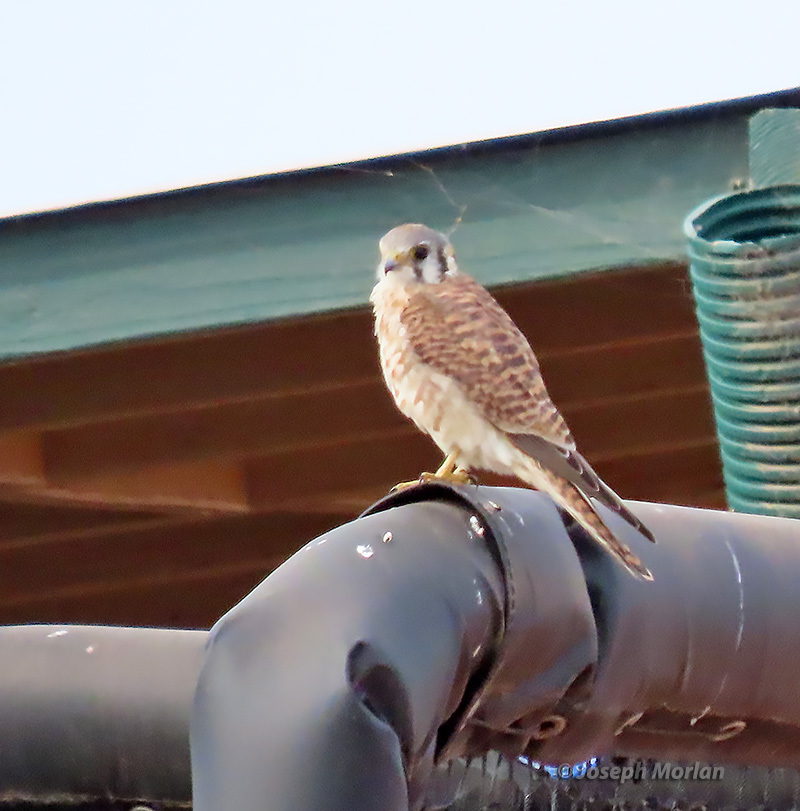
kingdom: Animalia
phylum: Chordata
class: Aves
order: Falconiformes
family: Falconidae
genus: Falco
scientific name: Falco sparverius
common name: American kestrel
